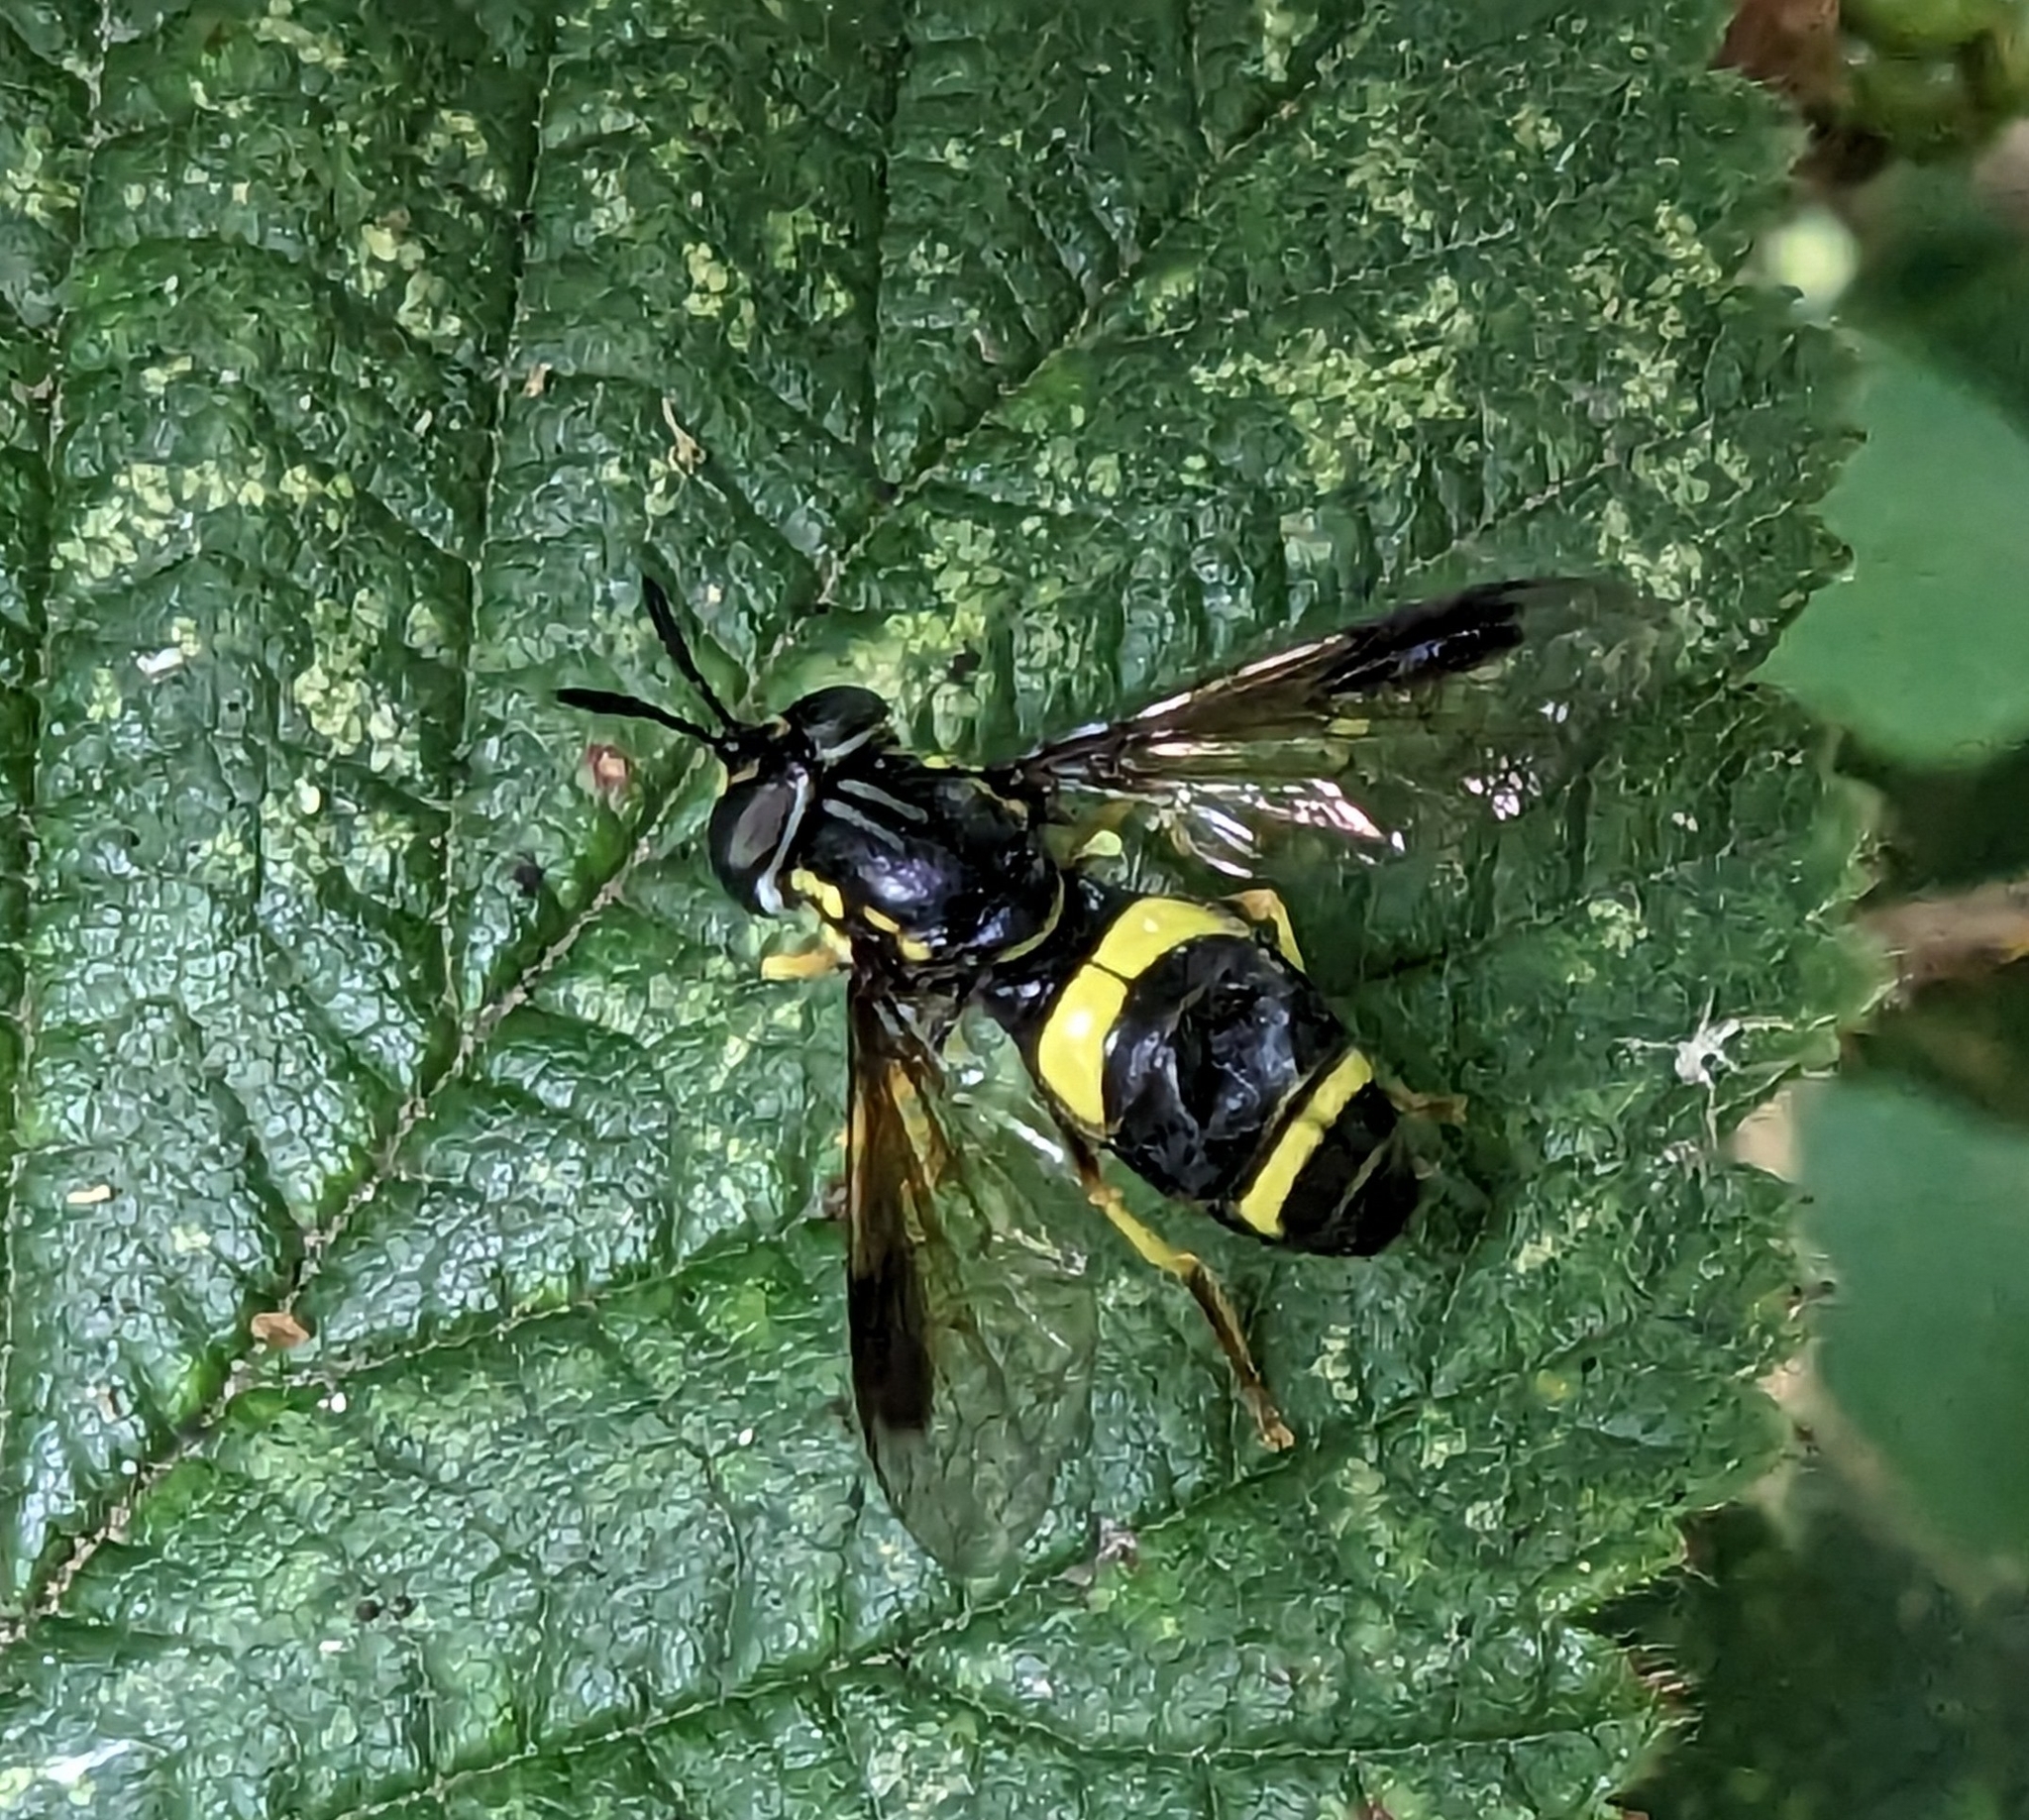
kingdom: Animalia
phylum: Arthropoda
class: Insecta
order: Diptera
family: Syrphidae
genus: Chrysotoxum
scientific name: Chrysotoxum bicincta
